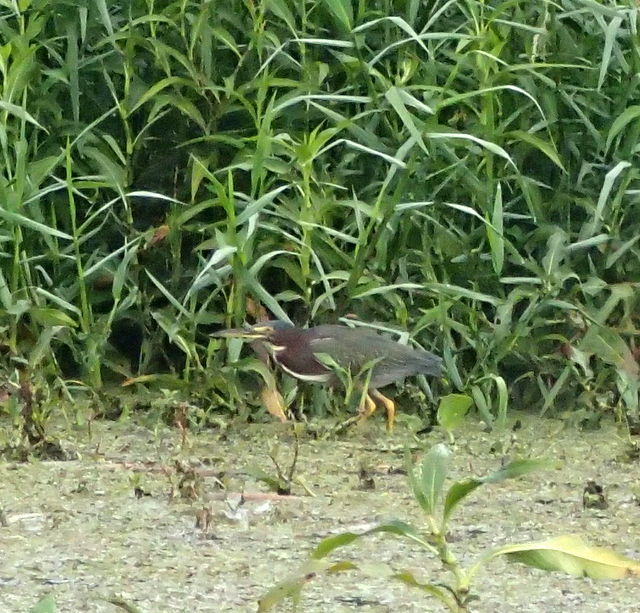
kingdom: Animalia
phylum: Chordata
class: Aves
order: Pelecaniformes
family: Ardeidae
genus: Butorides
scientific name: Butorides virescens
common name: Green heron
